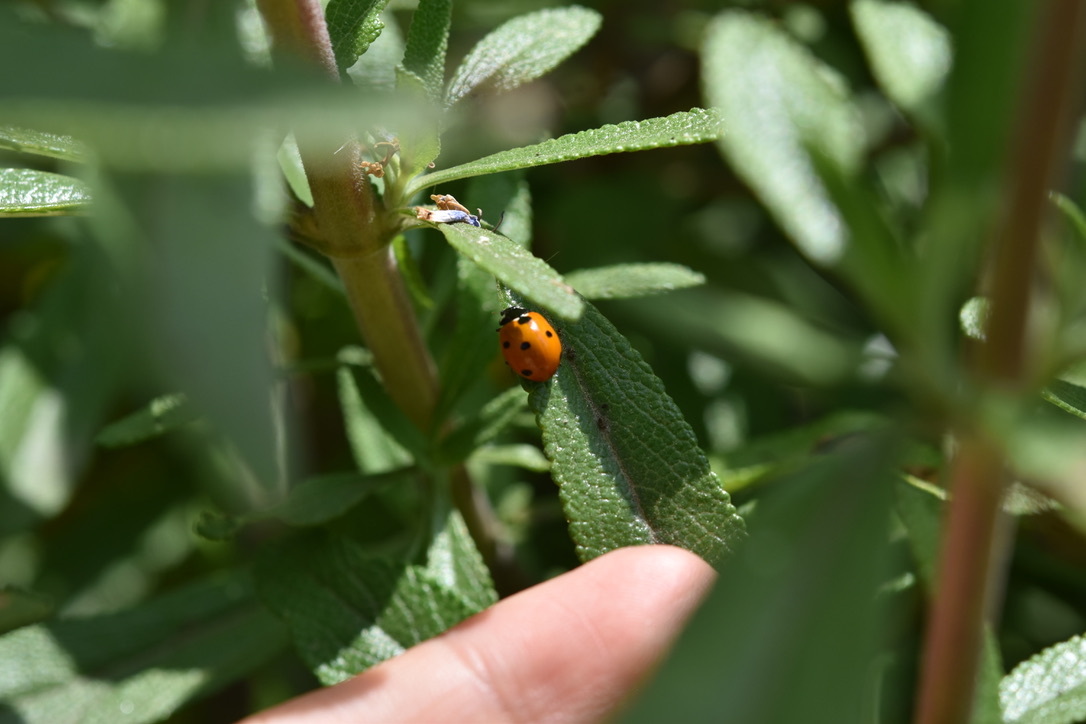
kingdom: Animalia
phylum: Arthropoda
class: Insecta
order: Coleoptera
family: Coccinellidae
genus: Coccinella
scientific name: Coccinella septempunctata
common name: Sevenspotted lady beetle
